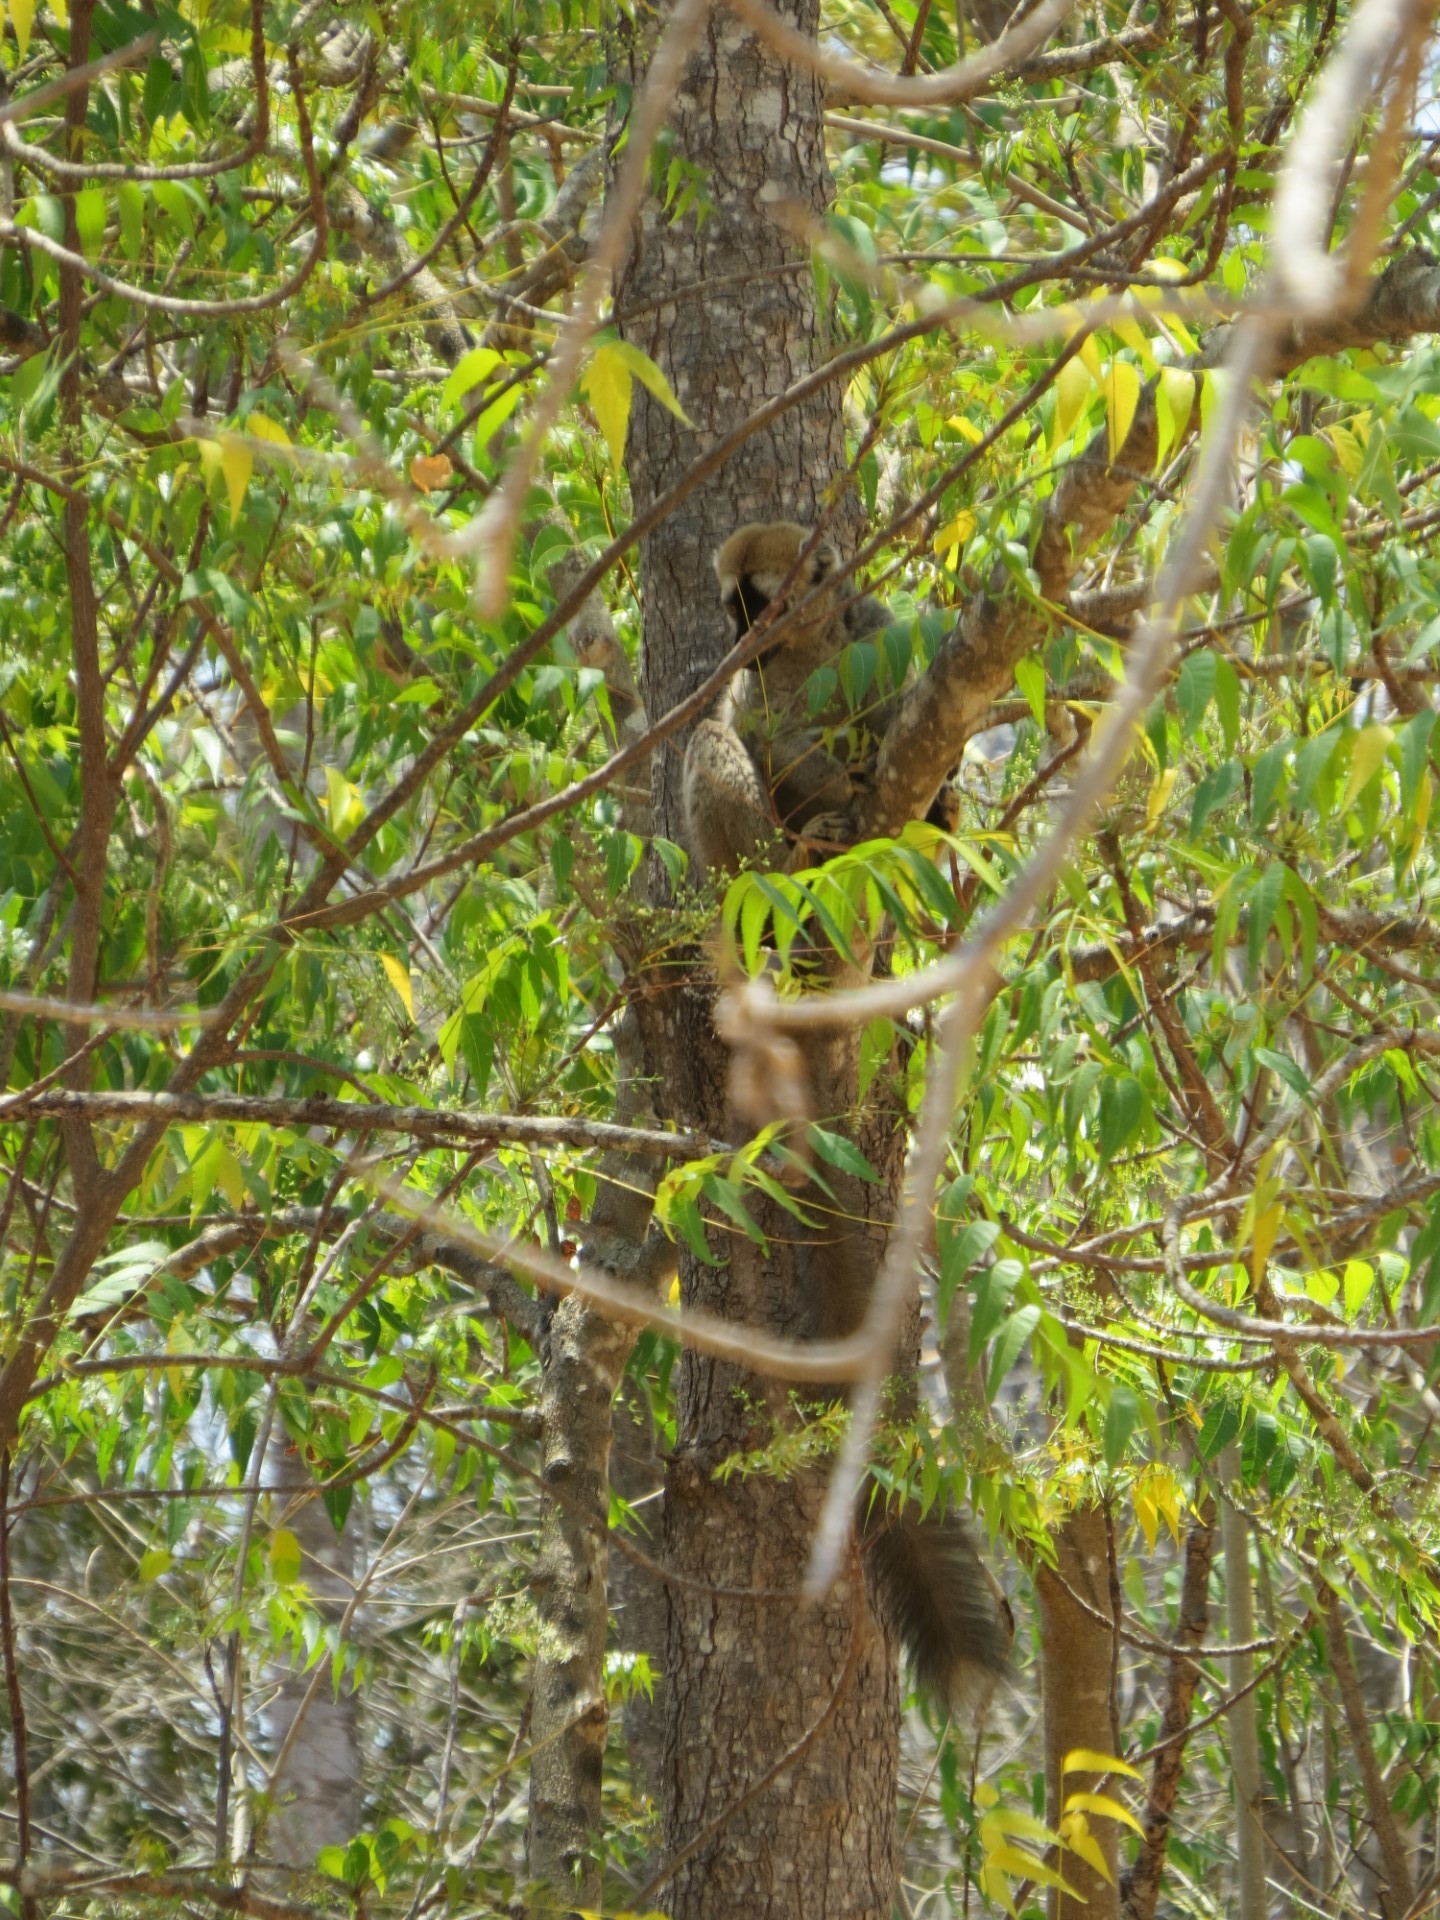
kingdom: Animalia
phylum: Chordata
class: Mammalia
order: Primates
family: Lemuridae
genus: Eulemur
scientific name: Eulemur rufifrons
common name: Red-fronted brown lemur
